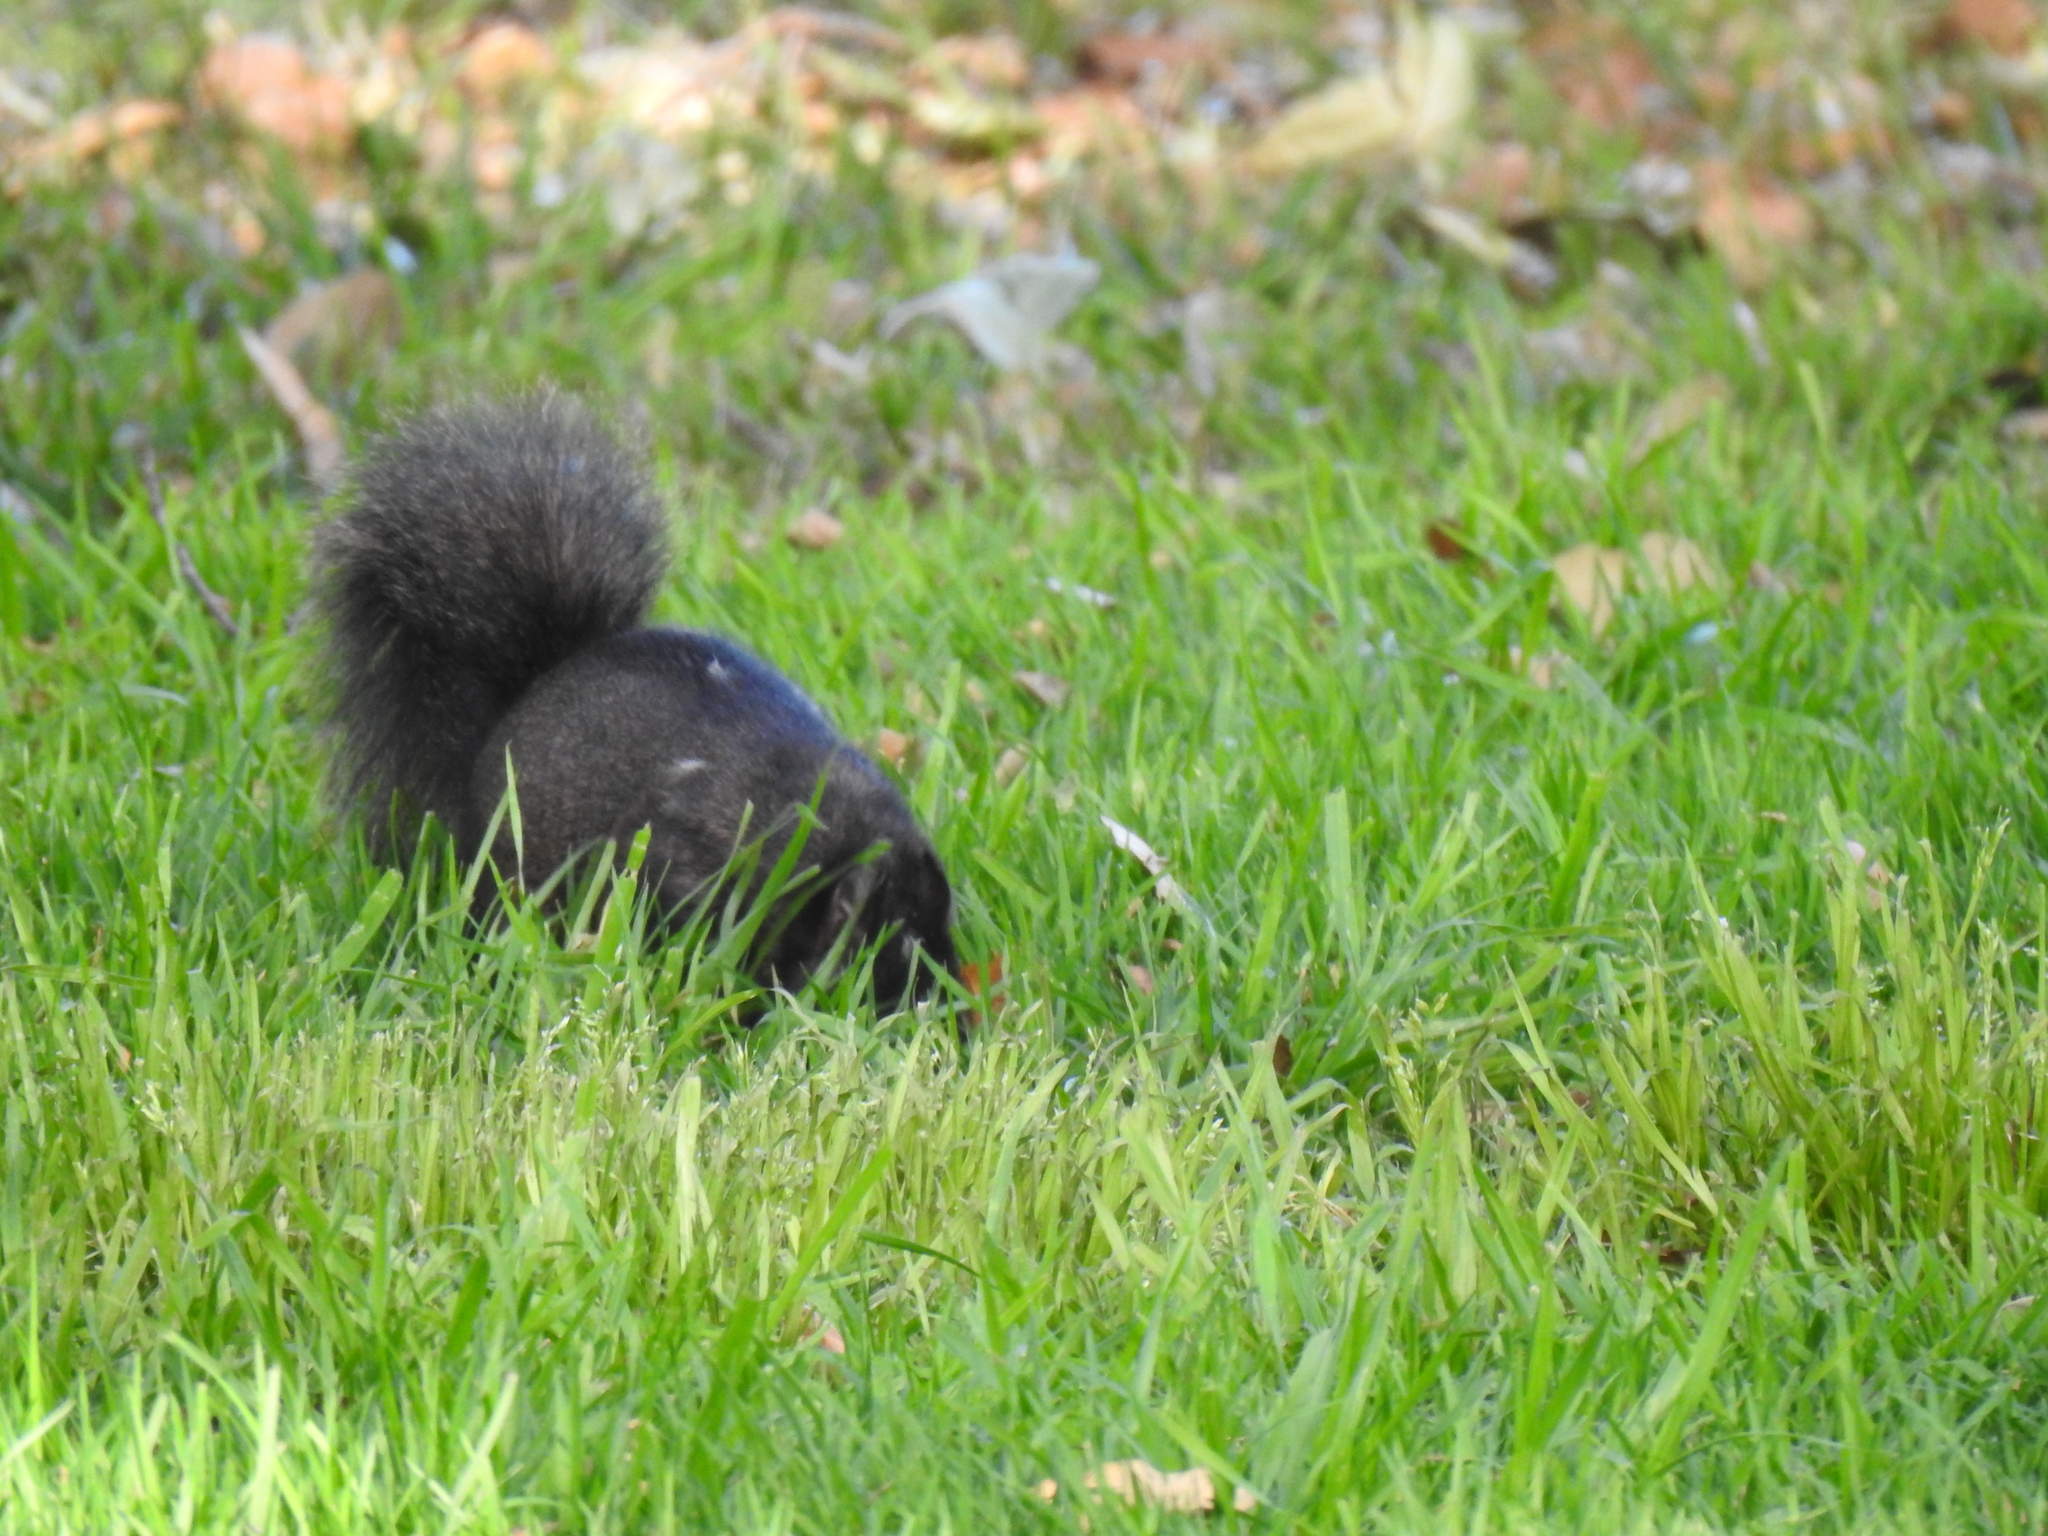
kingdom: Animalia
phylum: Chordata
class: Mammalia
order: Rodentia
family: Sciuridae
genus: Sciurus
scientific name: Sciurus carolinensis
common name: Eastern gray squirrel
